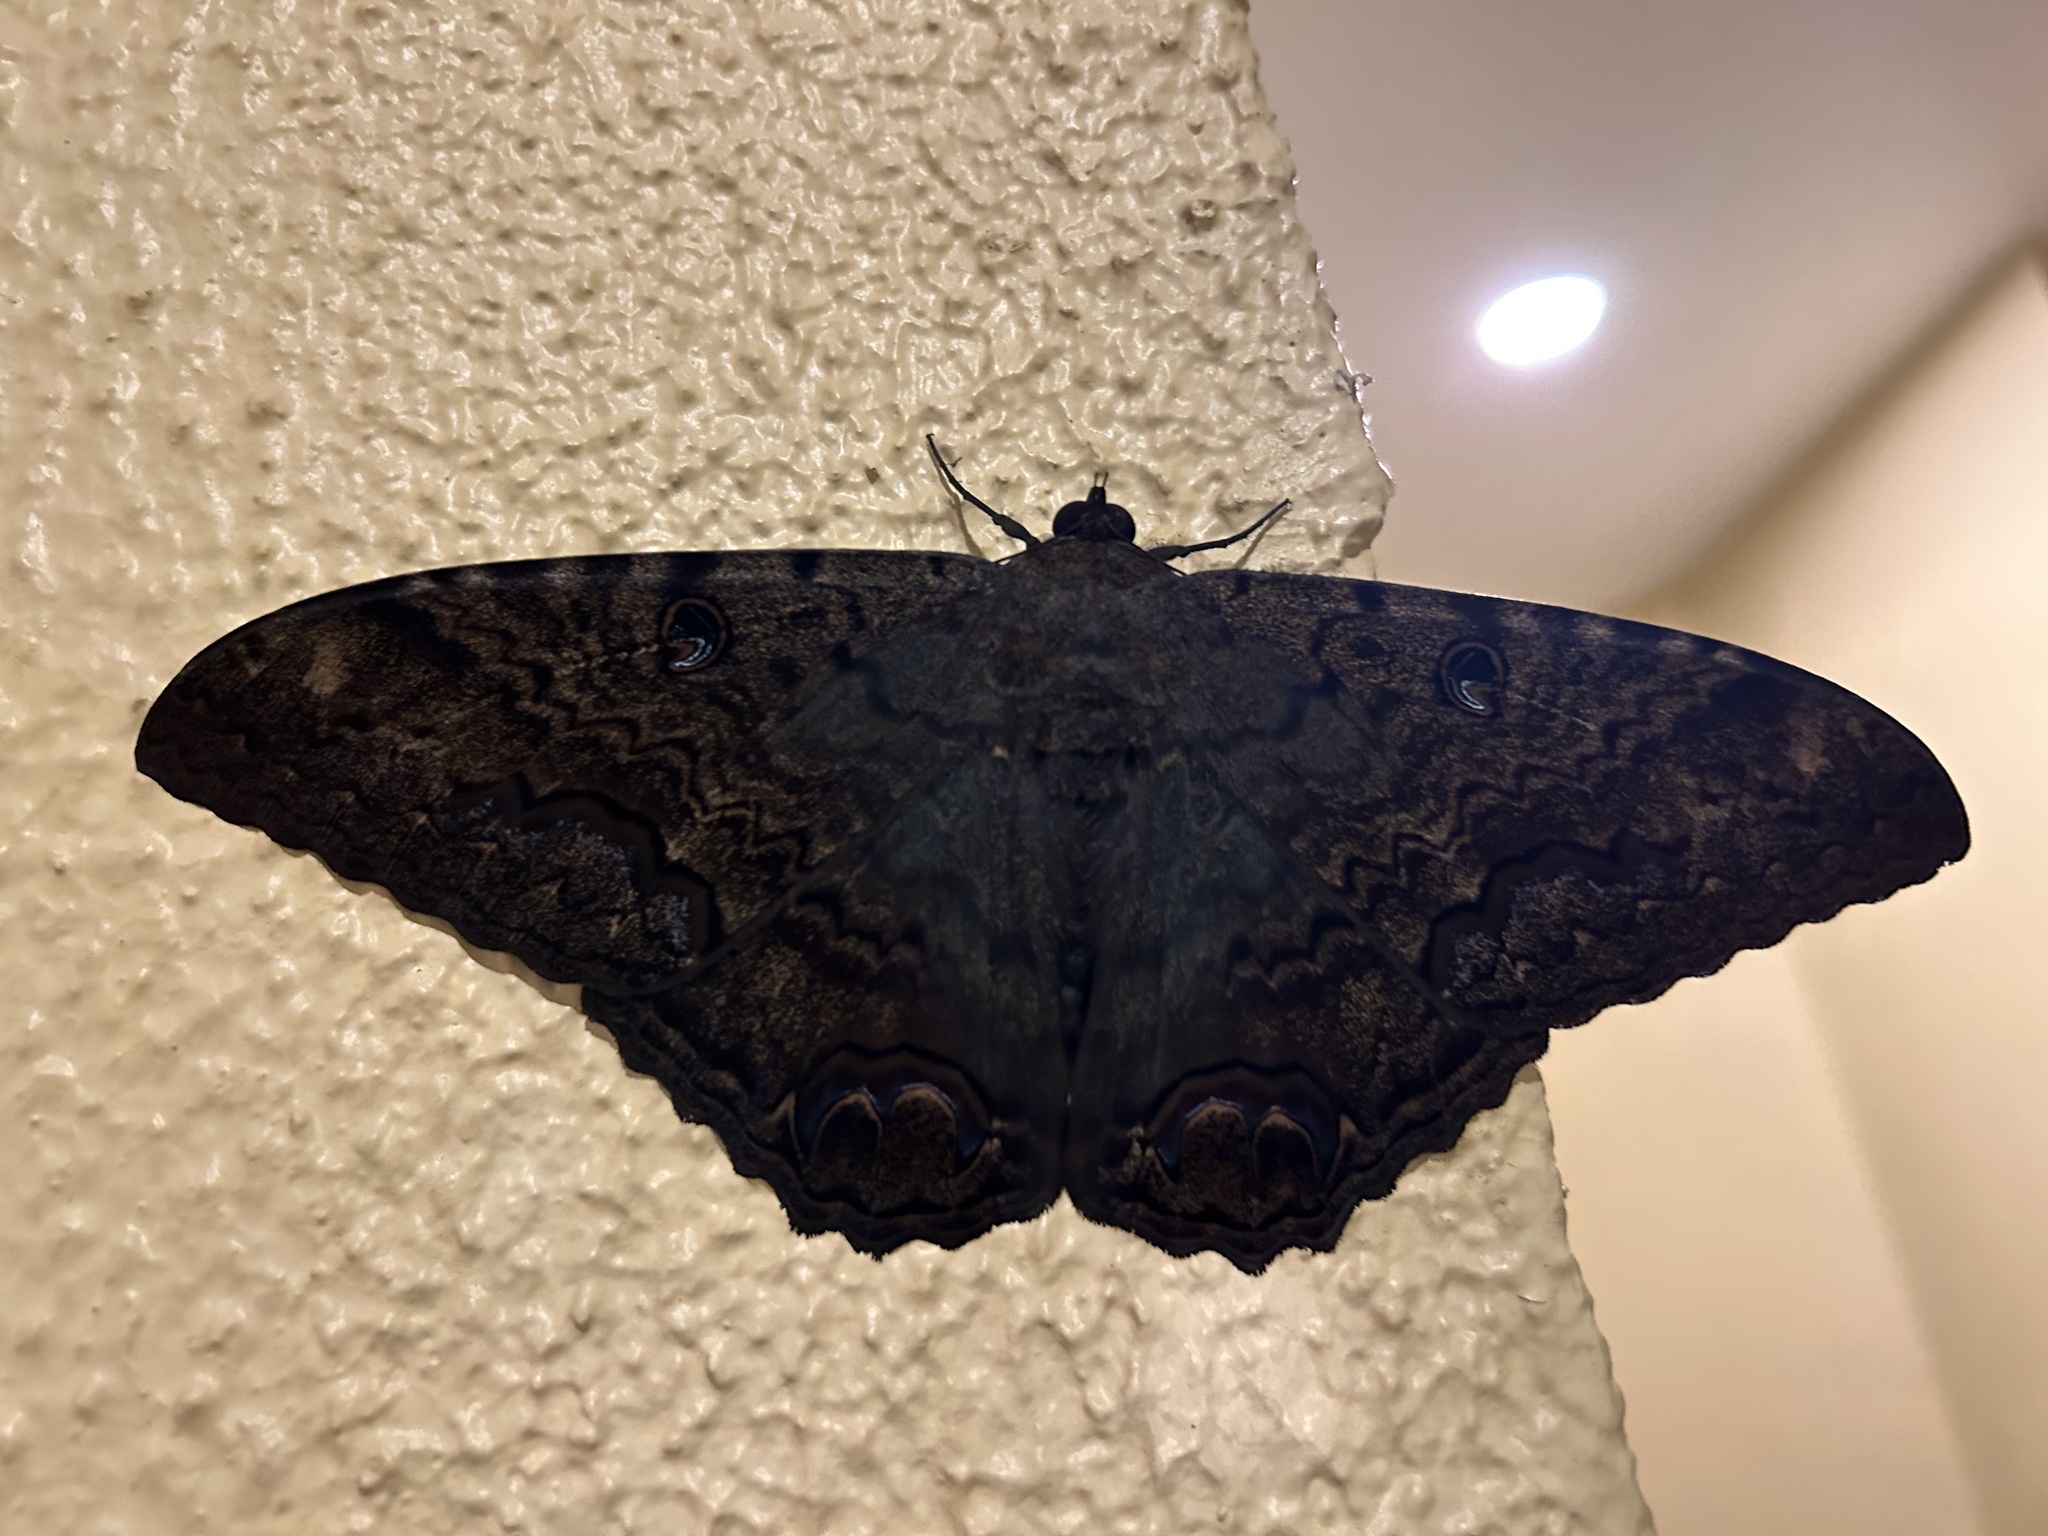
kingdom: Animalia
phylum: Arthropoda
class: Insecta
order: Lepidoptera
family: Erebidae
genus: Ascalapha
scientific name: Ascalapha odorata
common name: Black witch
